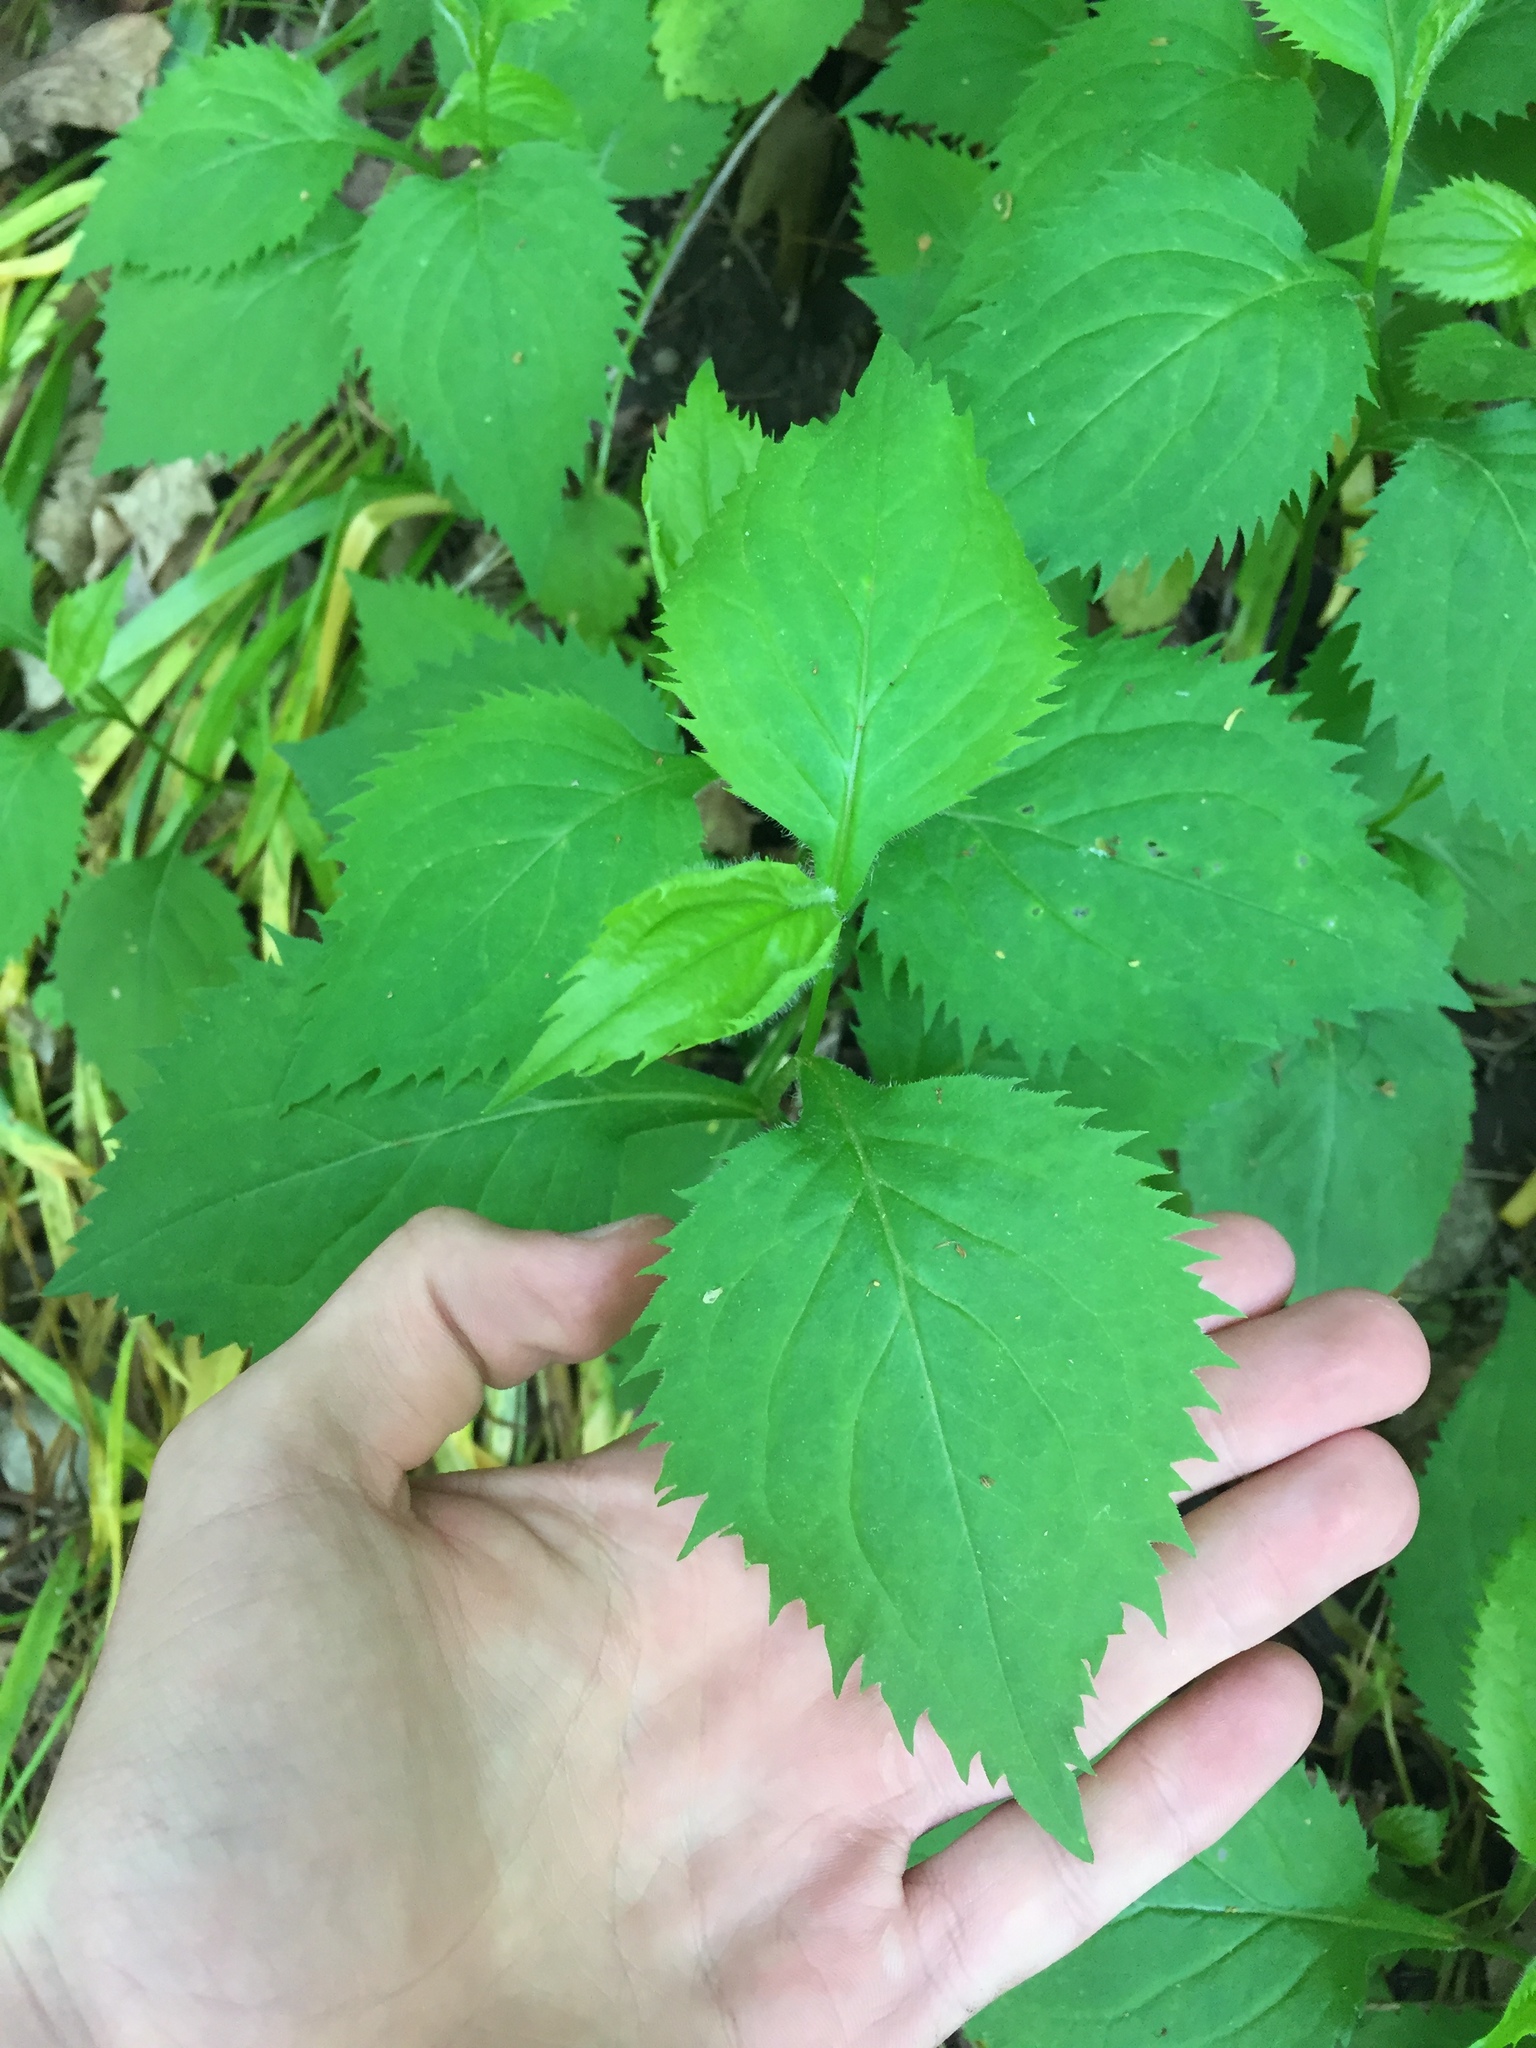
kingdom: Plantae
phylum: Tracheophyta
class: Magnoliopsida
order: Asterales
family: Asteraceae
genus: Solidago
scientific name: Solidago flexicaulis
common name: Zig-zag goldenrod
